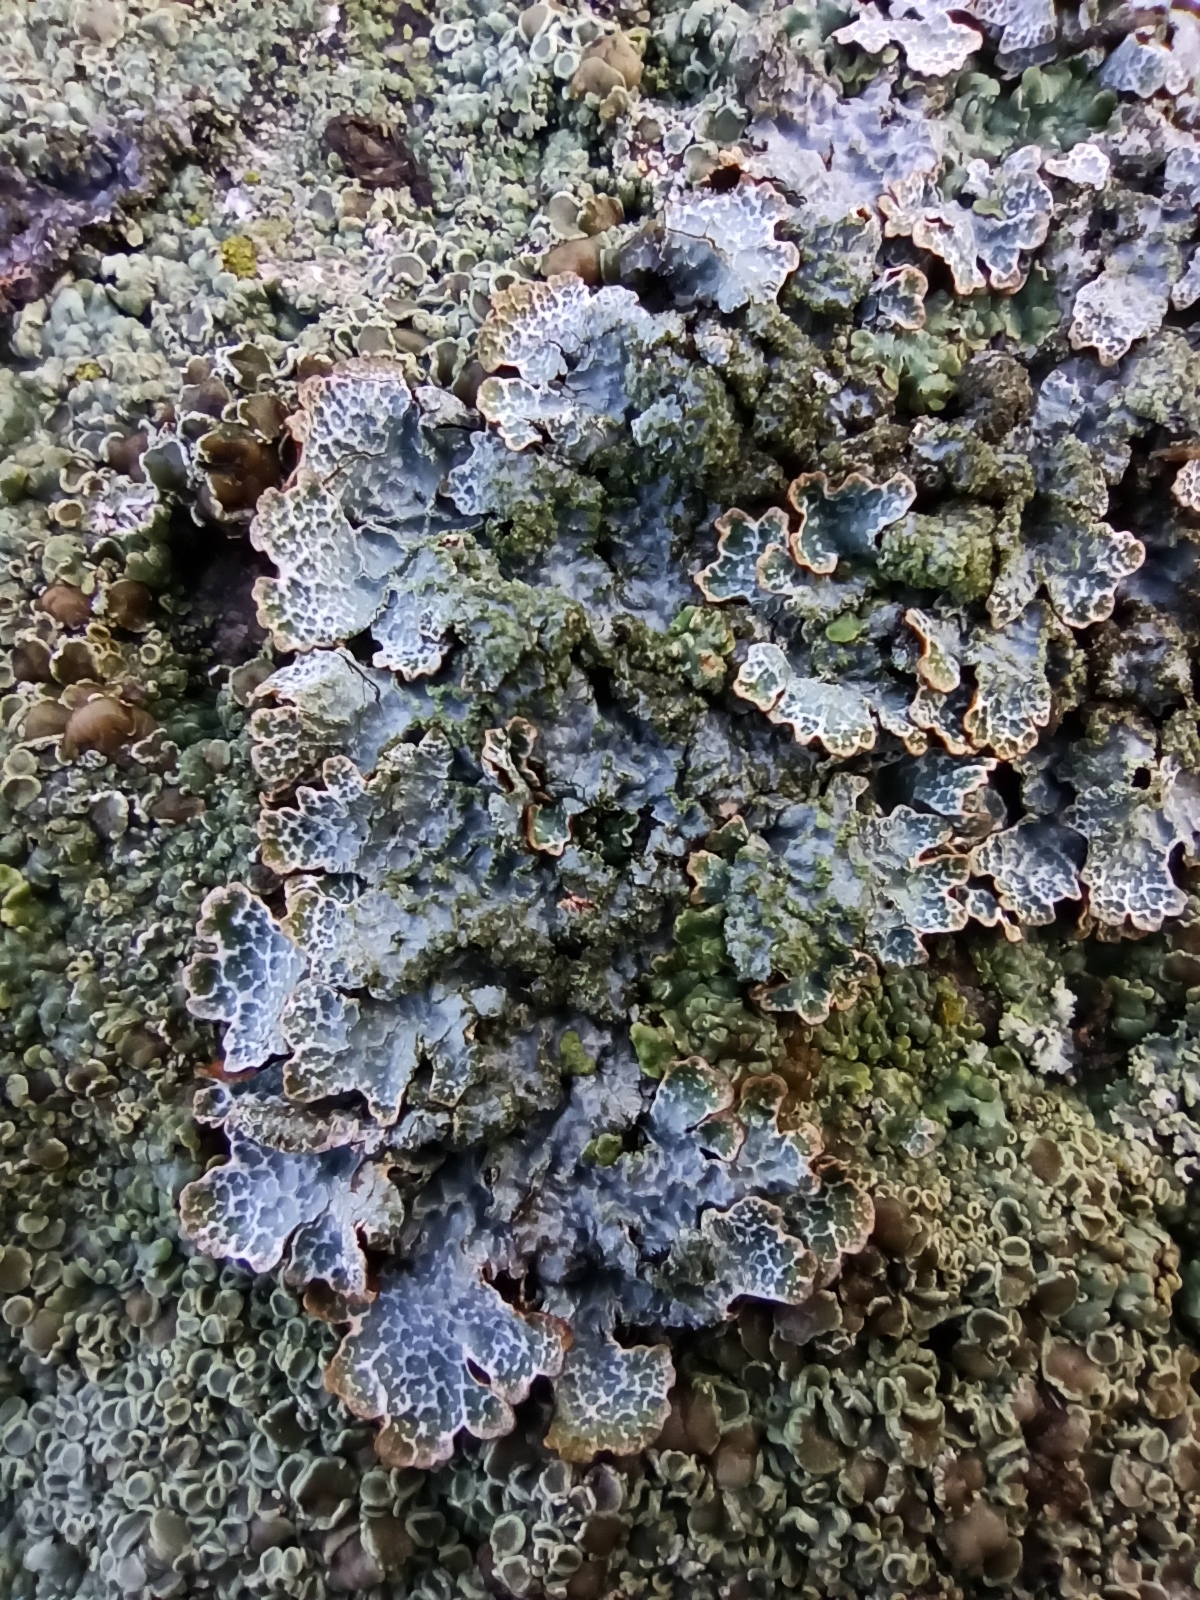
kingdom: Fungi
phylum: Ascomycota
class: Lecanoromycetes
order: Lecanorales
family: Parmeliaceae
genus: Parmelia
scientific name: Parmelia saxatilis
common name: Salted shield lichen
